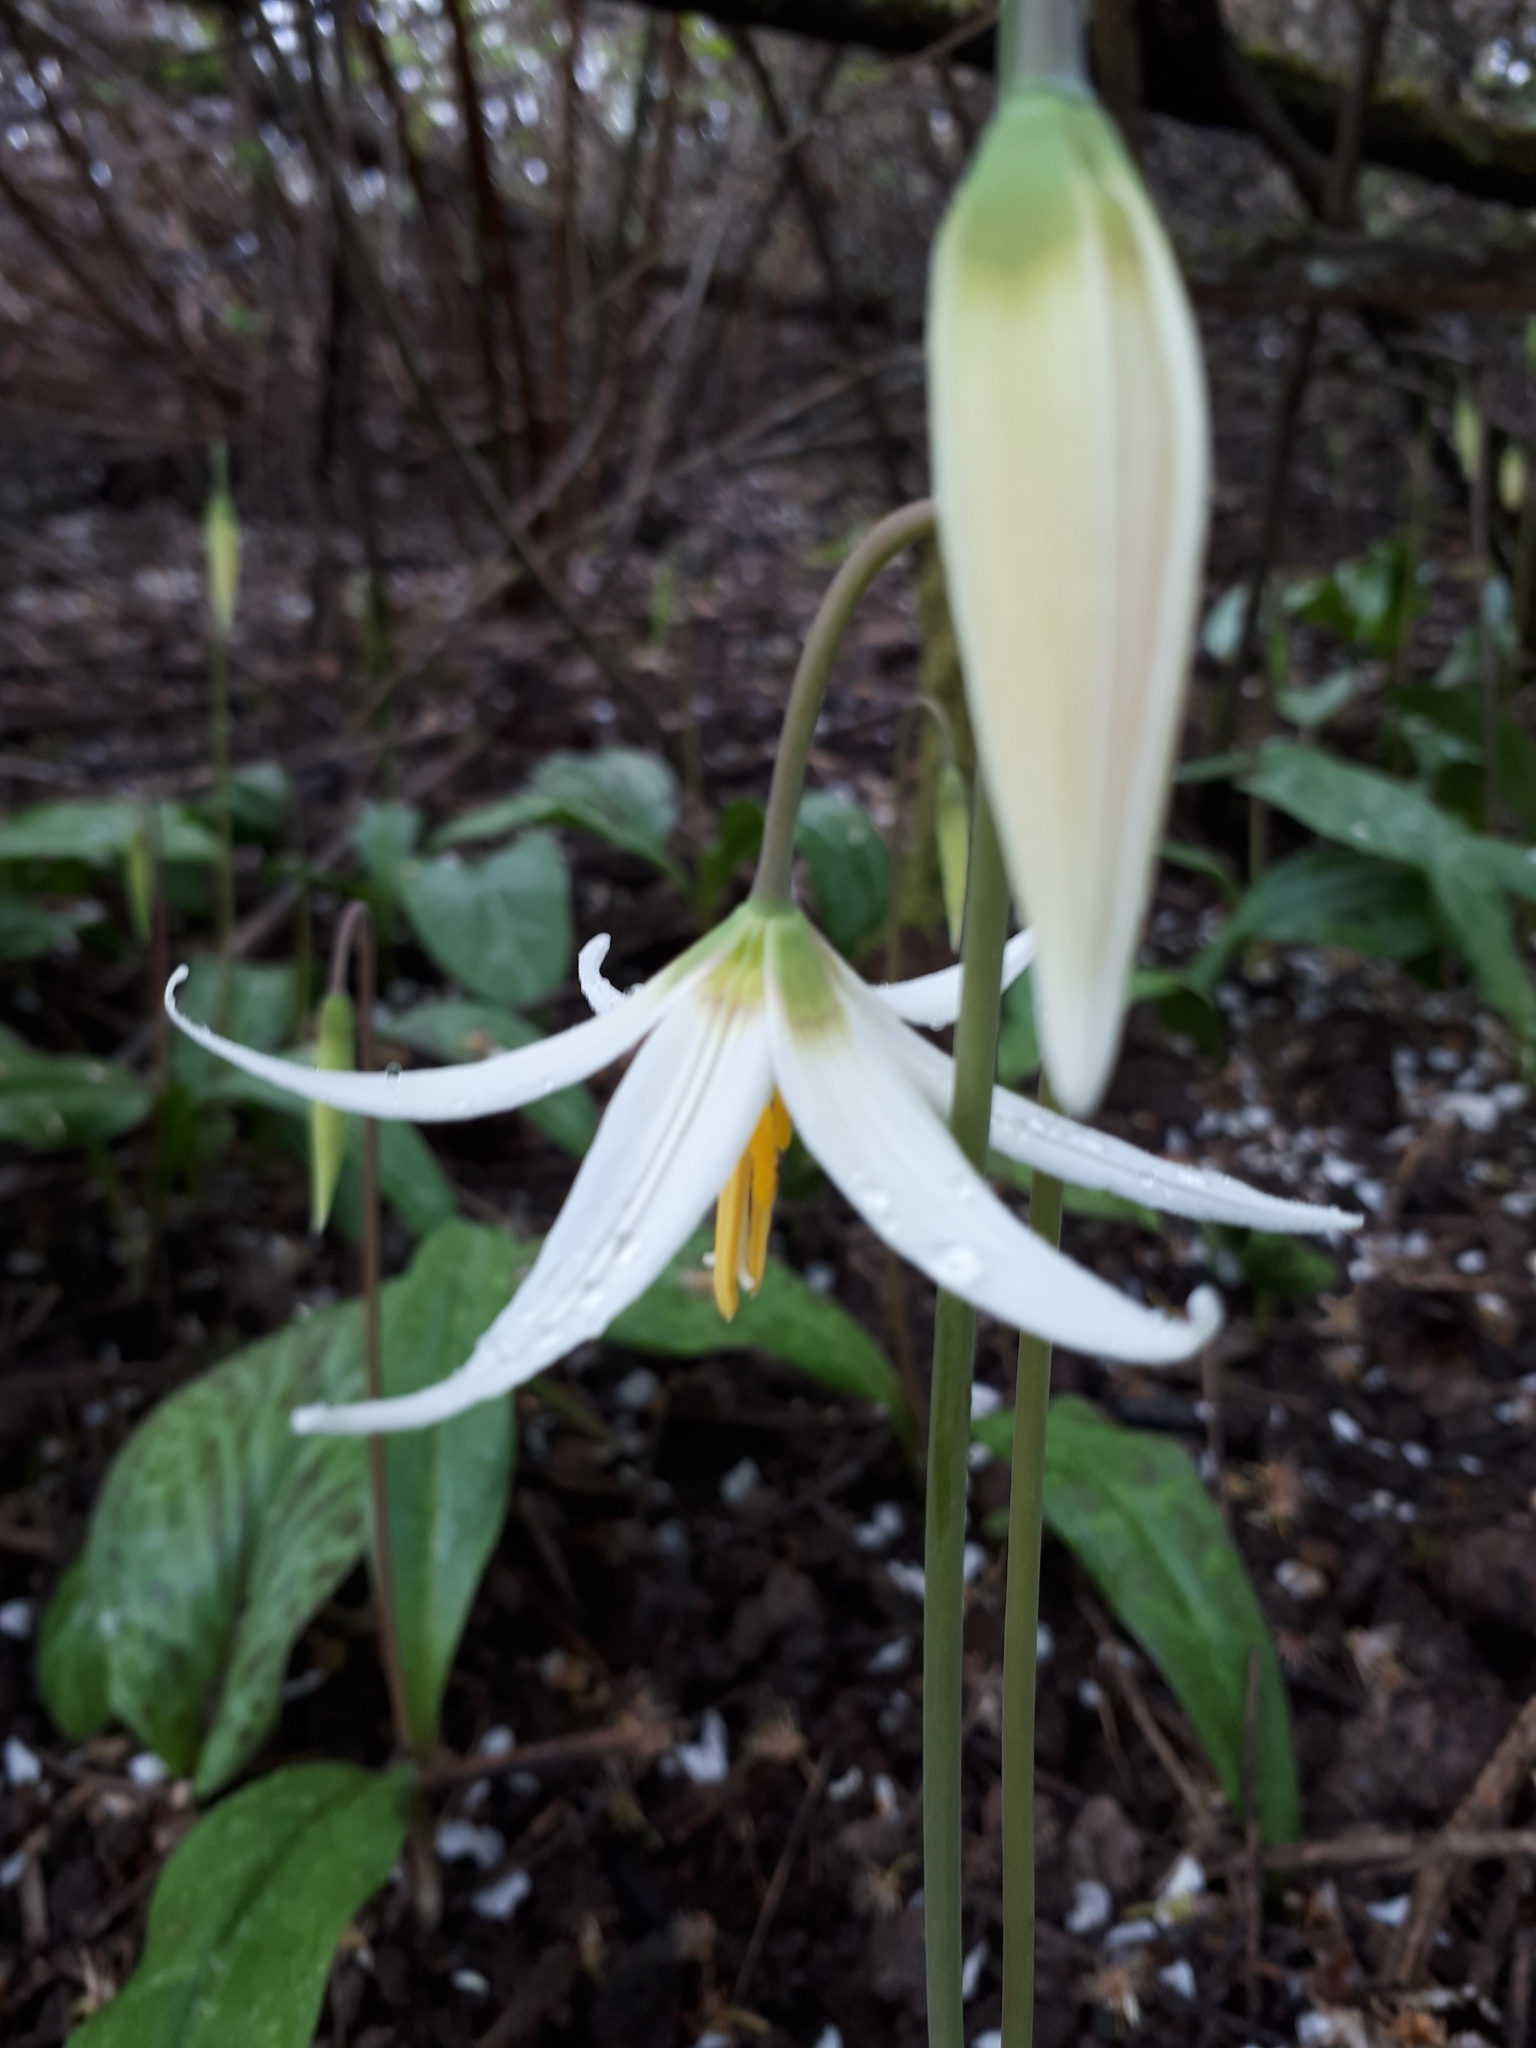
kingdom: Plantae
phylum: Tracheophyta
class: Liliopsida
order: Liliales
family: Liliaceae
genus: Erythronium
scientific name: Erythronium oregonum
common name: Giant adder's-tongue
